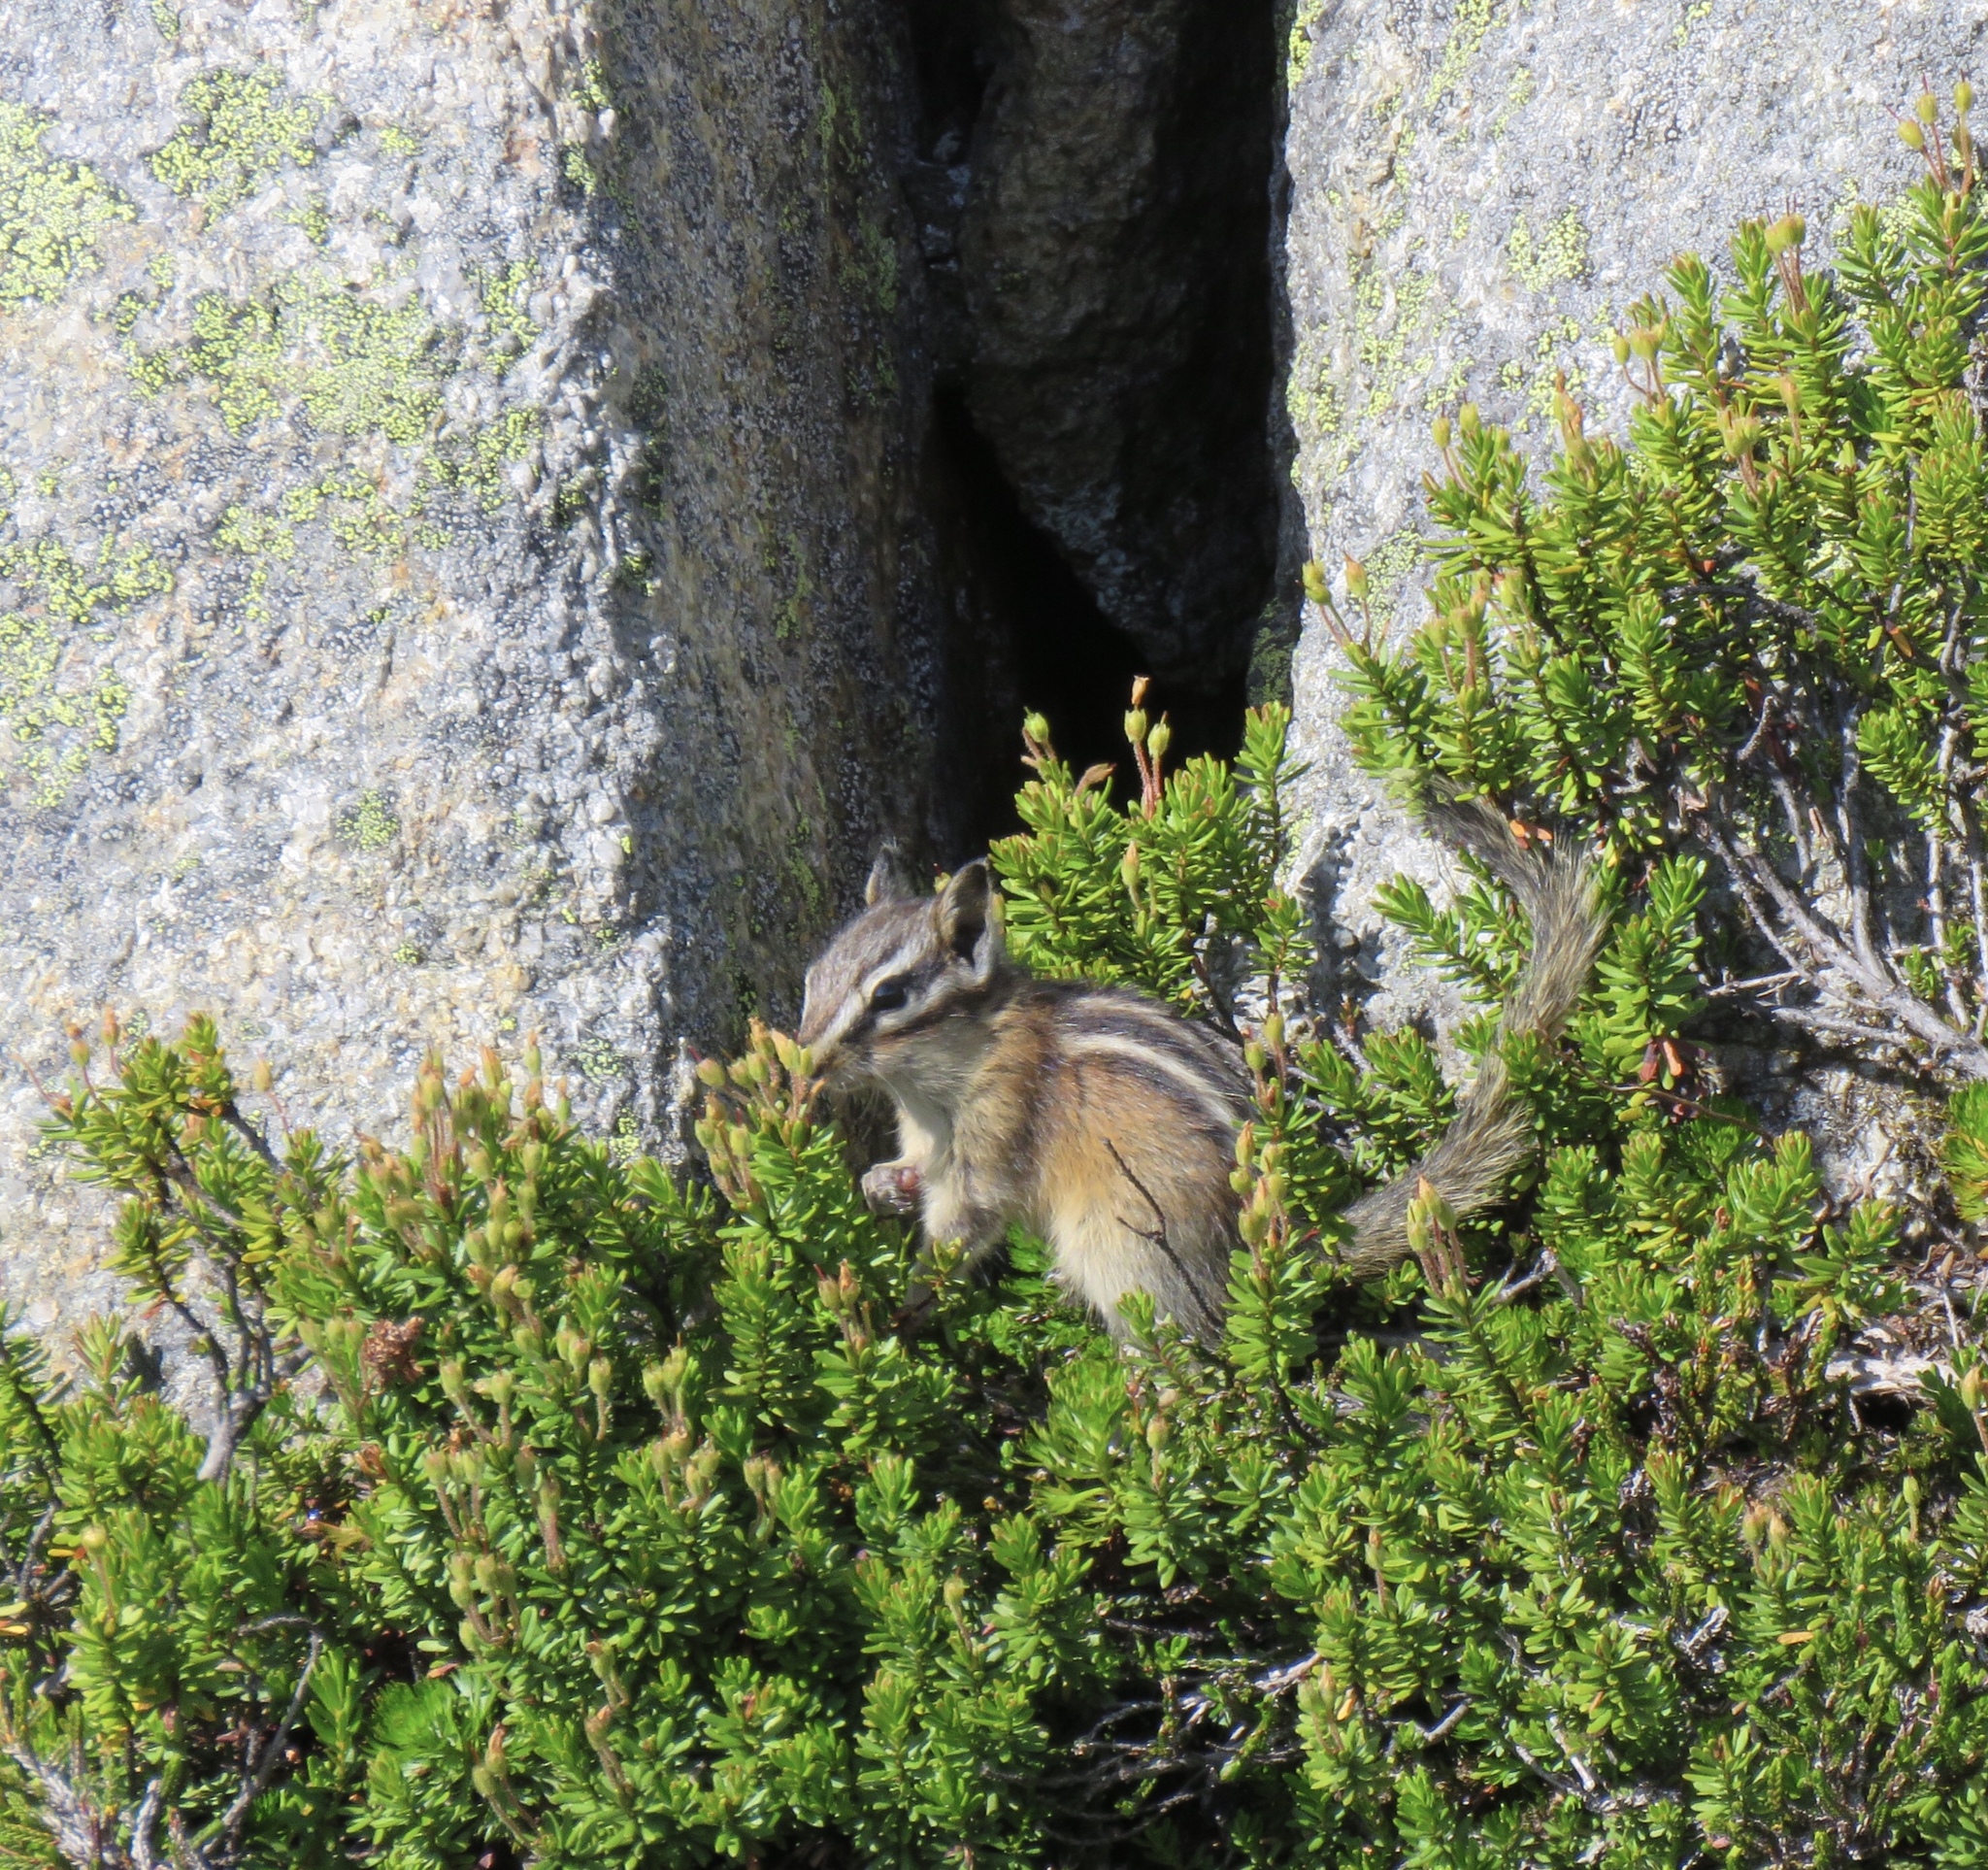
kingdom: Animalia
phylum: Chordata
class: Mammalia
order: Rodentia
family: Sciuridae
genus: Tamias
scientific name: Tamias amoenus
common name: Yellow-pine chipmunk
